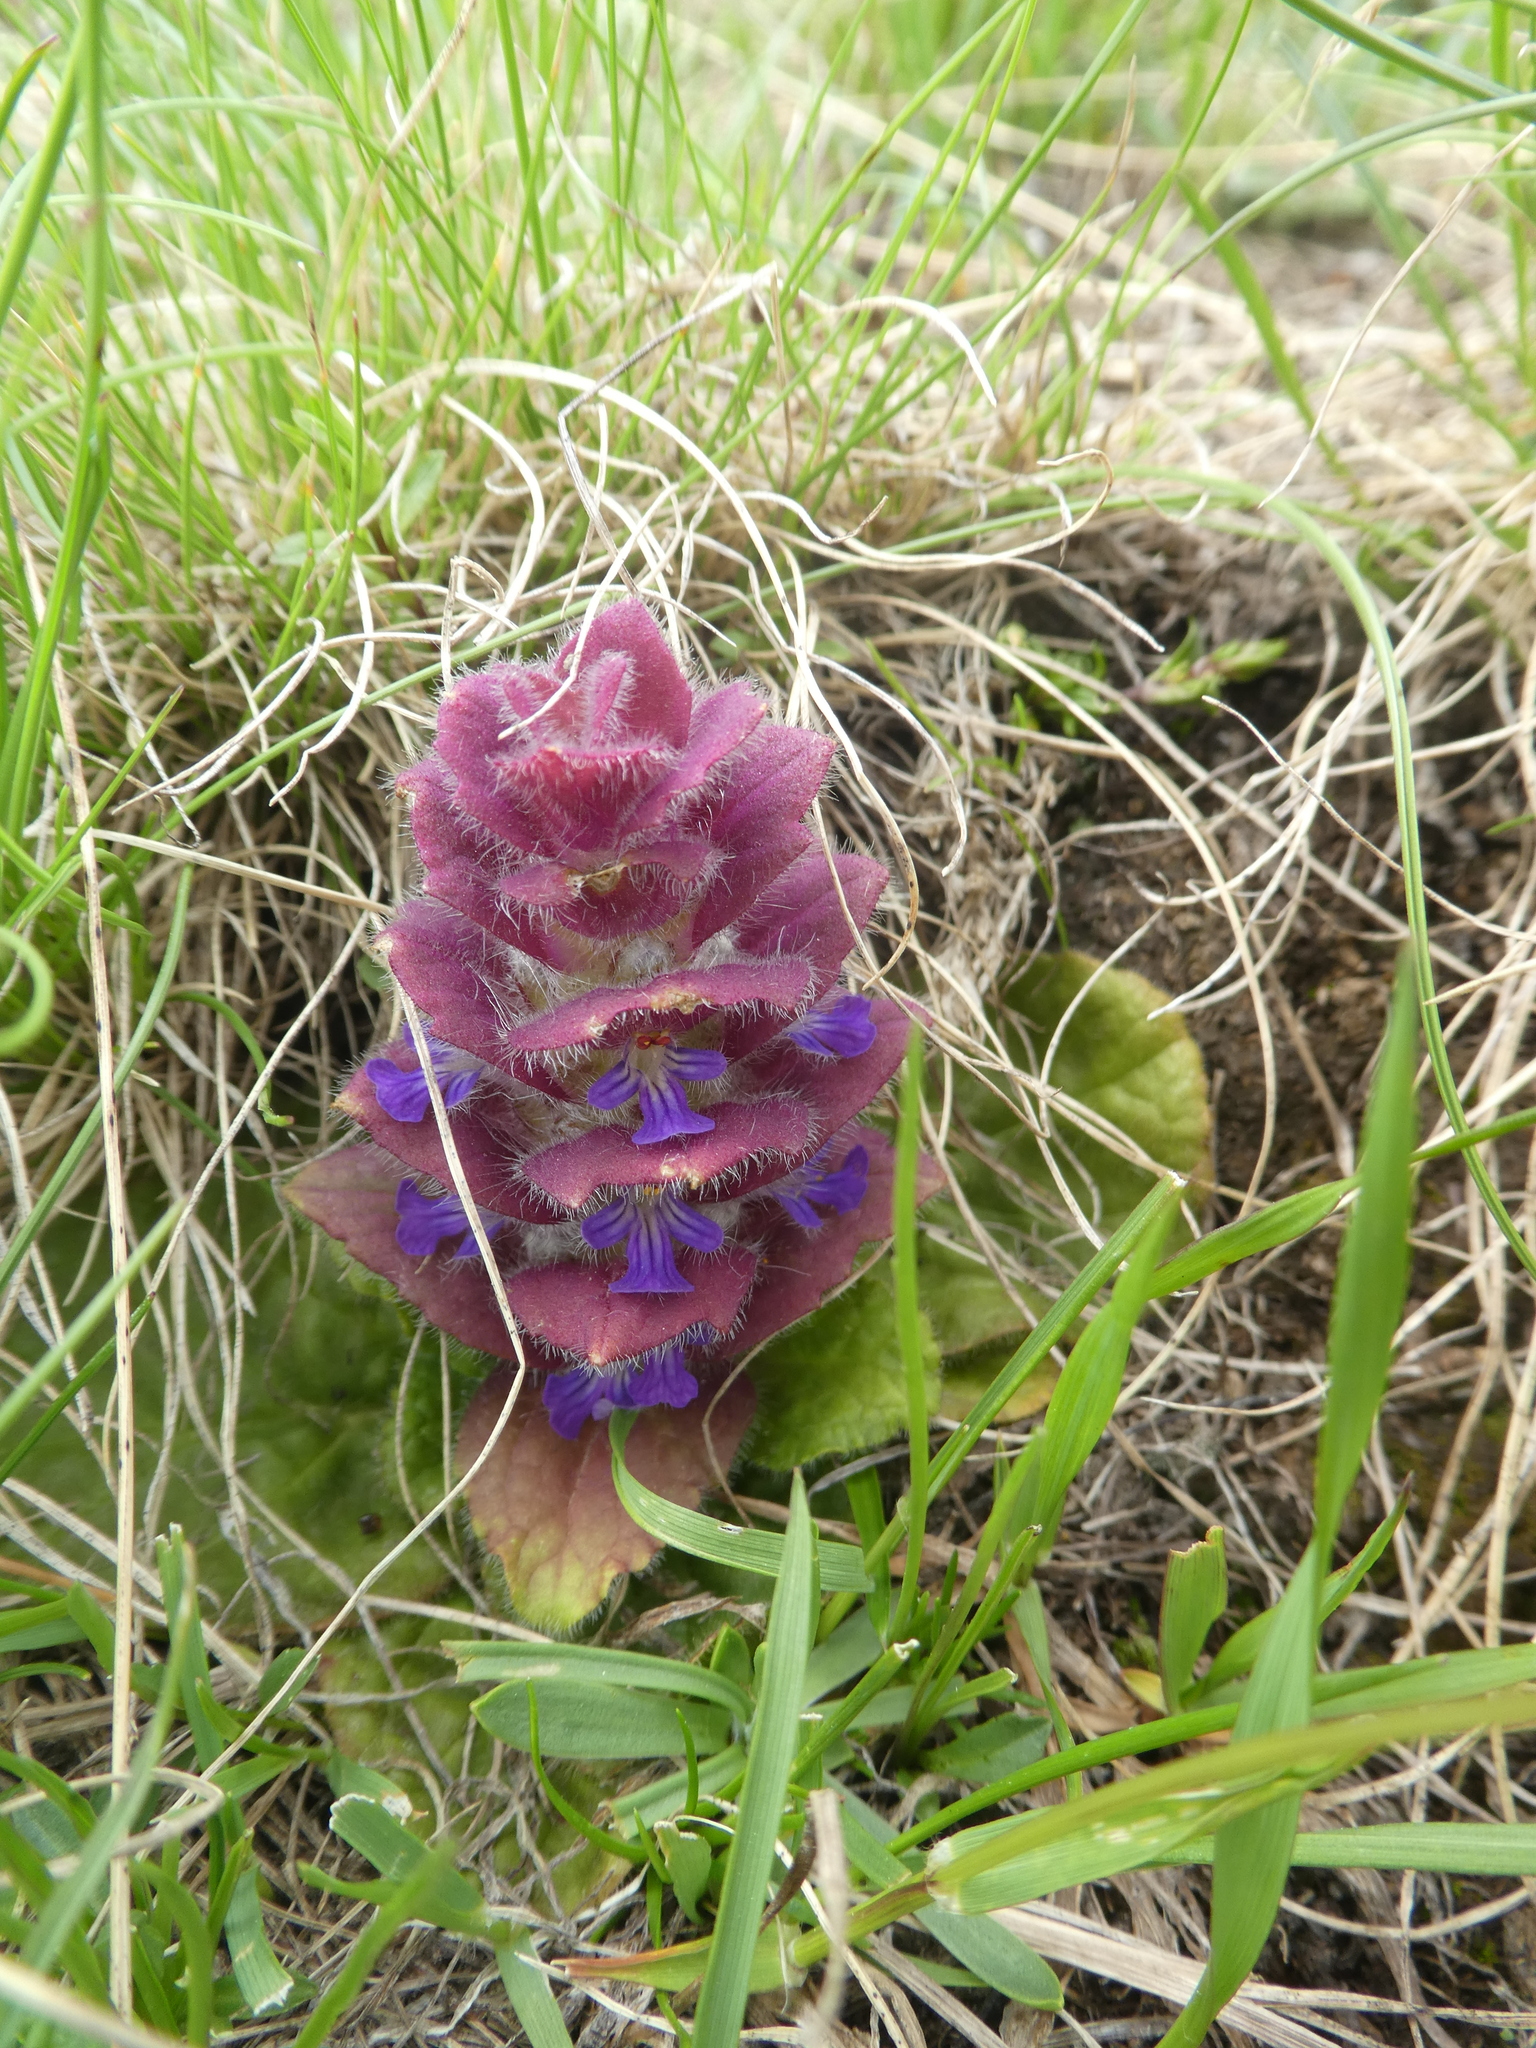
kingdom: Plantae
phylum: Tracheophyta
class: Magnoliopsida
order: Lamiales
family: Lamiaceae
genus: Ajuga
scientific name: Ajuga pyramidalis
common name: Pyramid bugle
